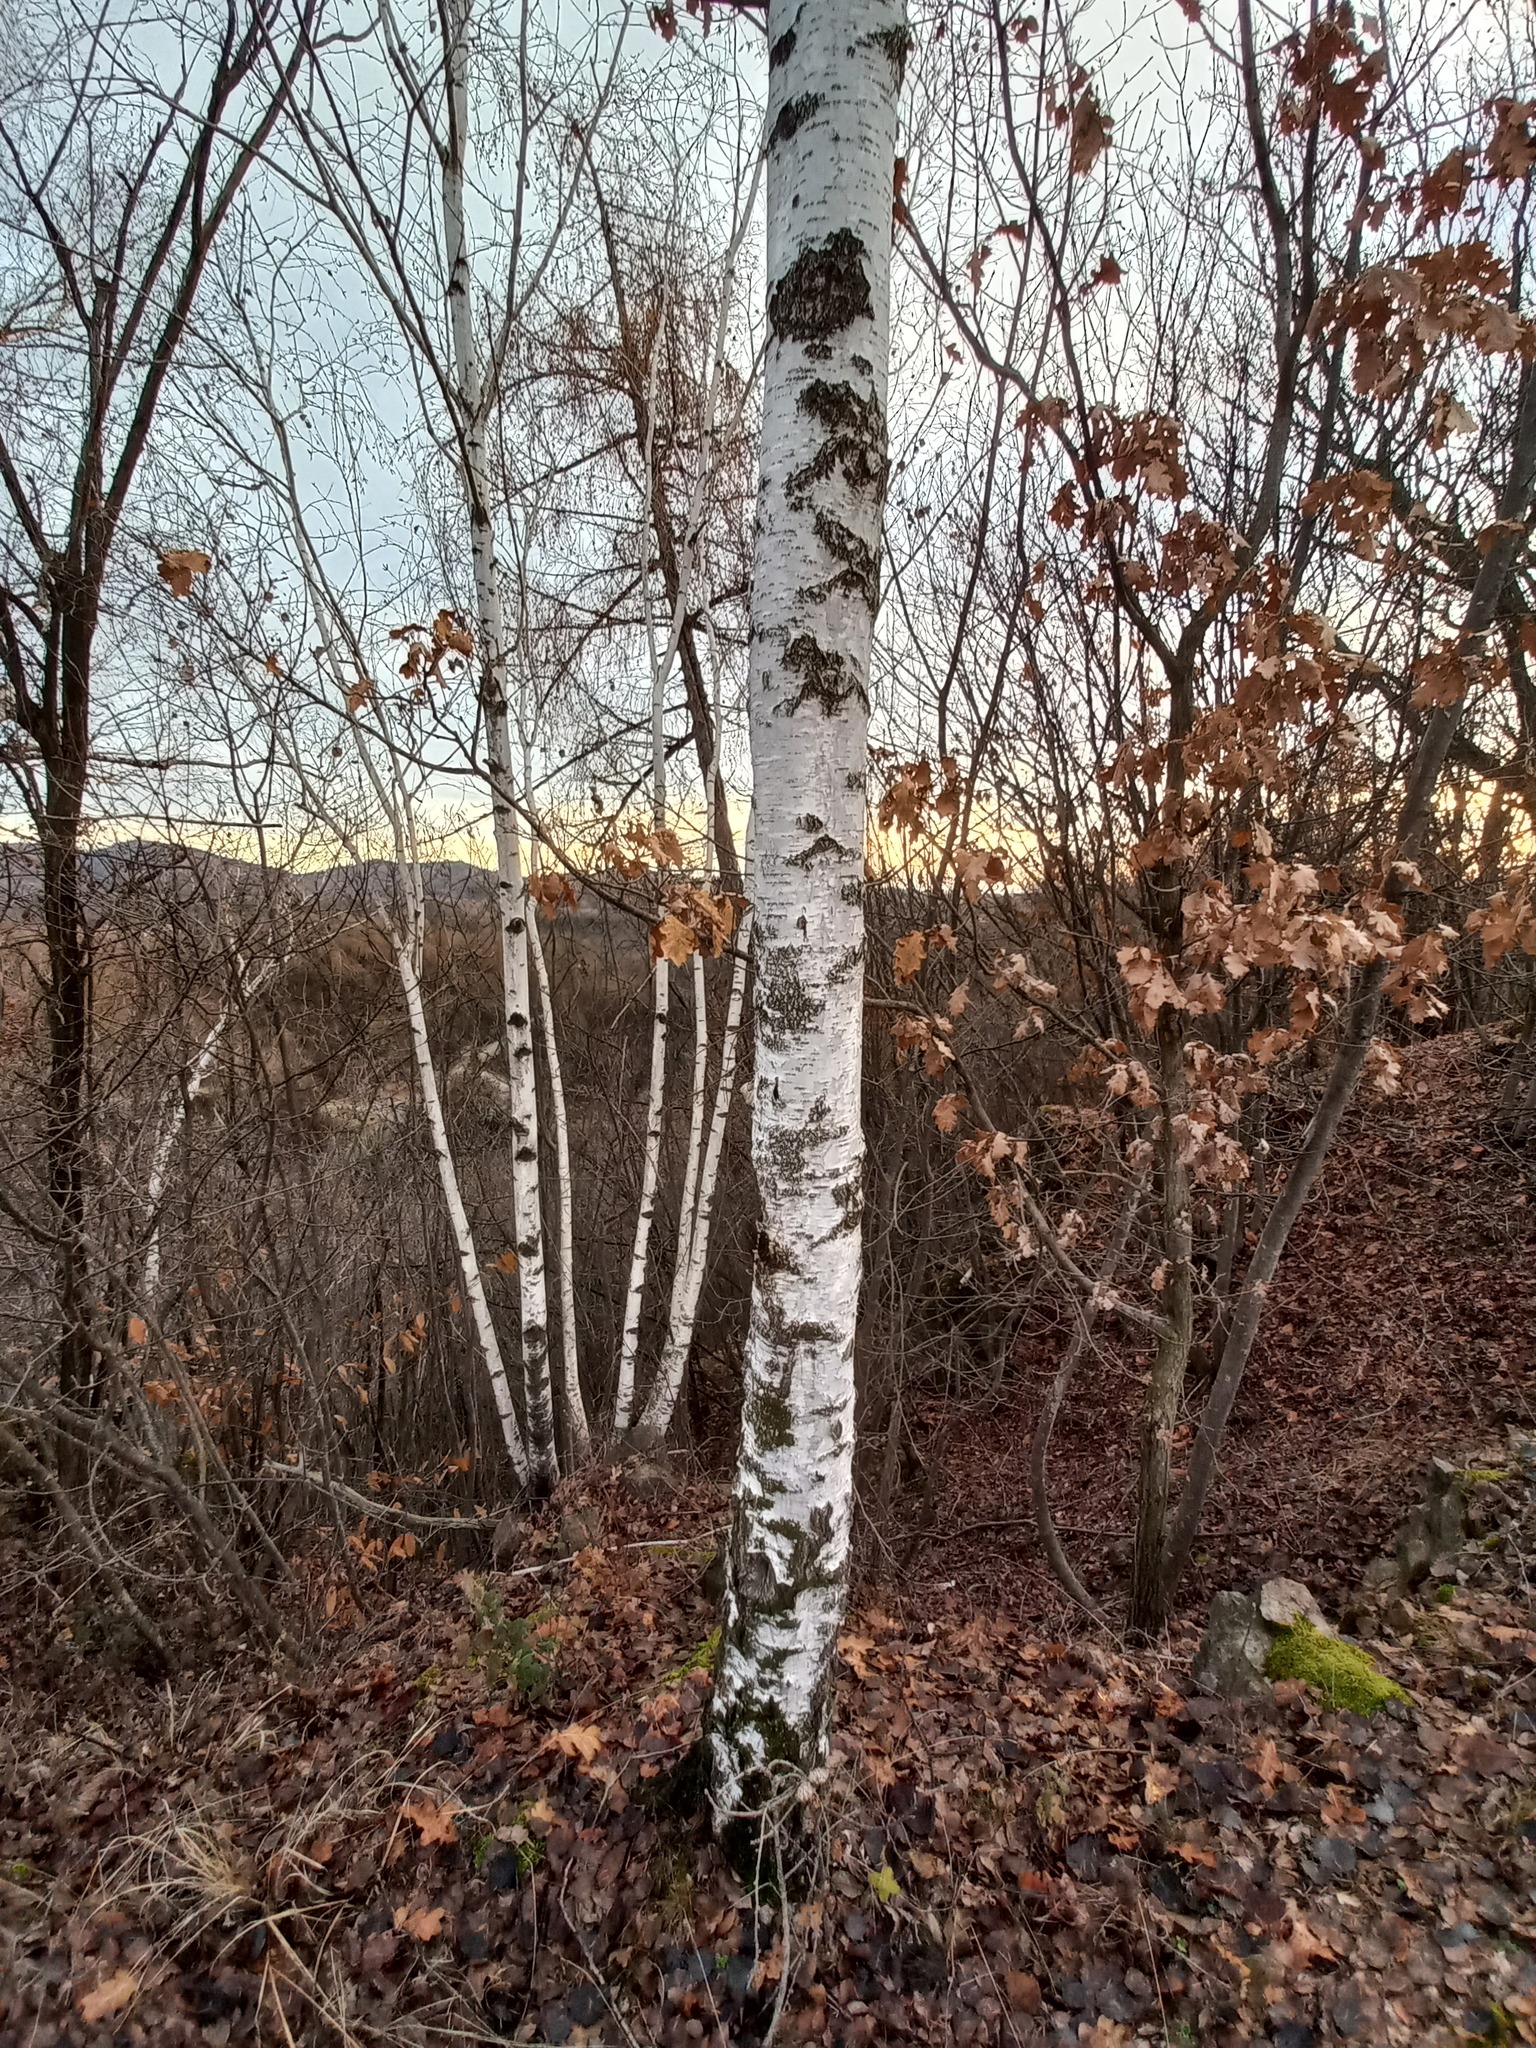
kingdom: Plantae
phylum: Tracheophyta
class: Magnoliopsida
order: Fagales
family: Betulaceae
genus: Betula
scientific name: Betula pendula
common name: Silver birch
